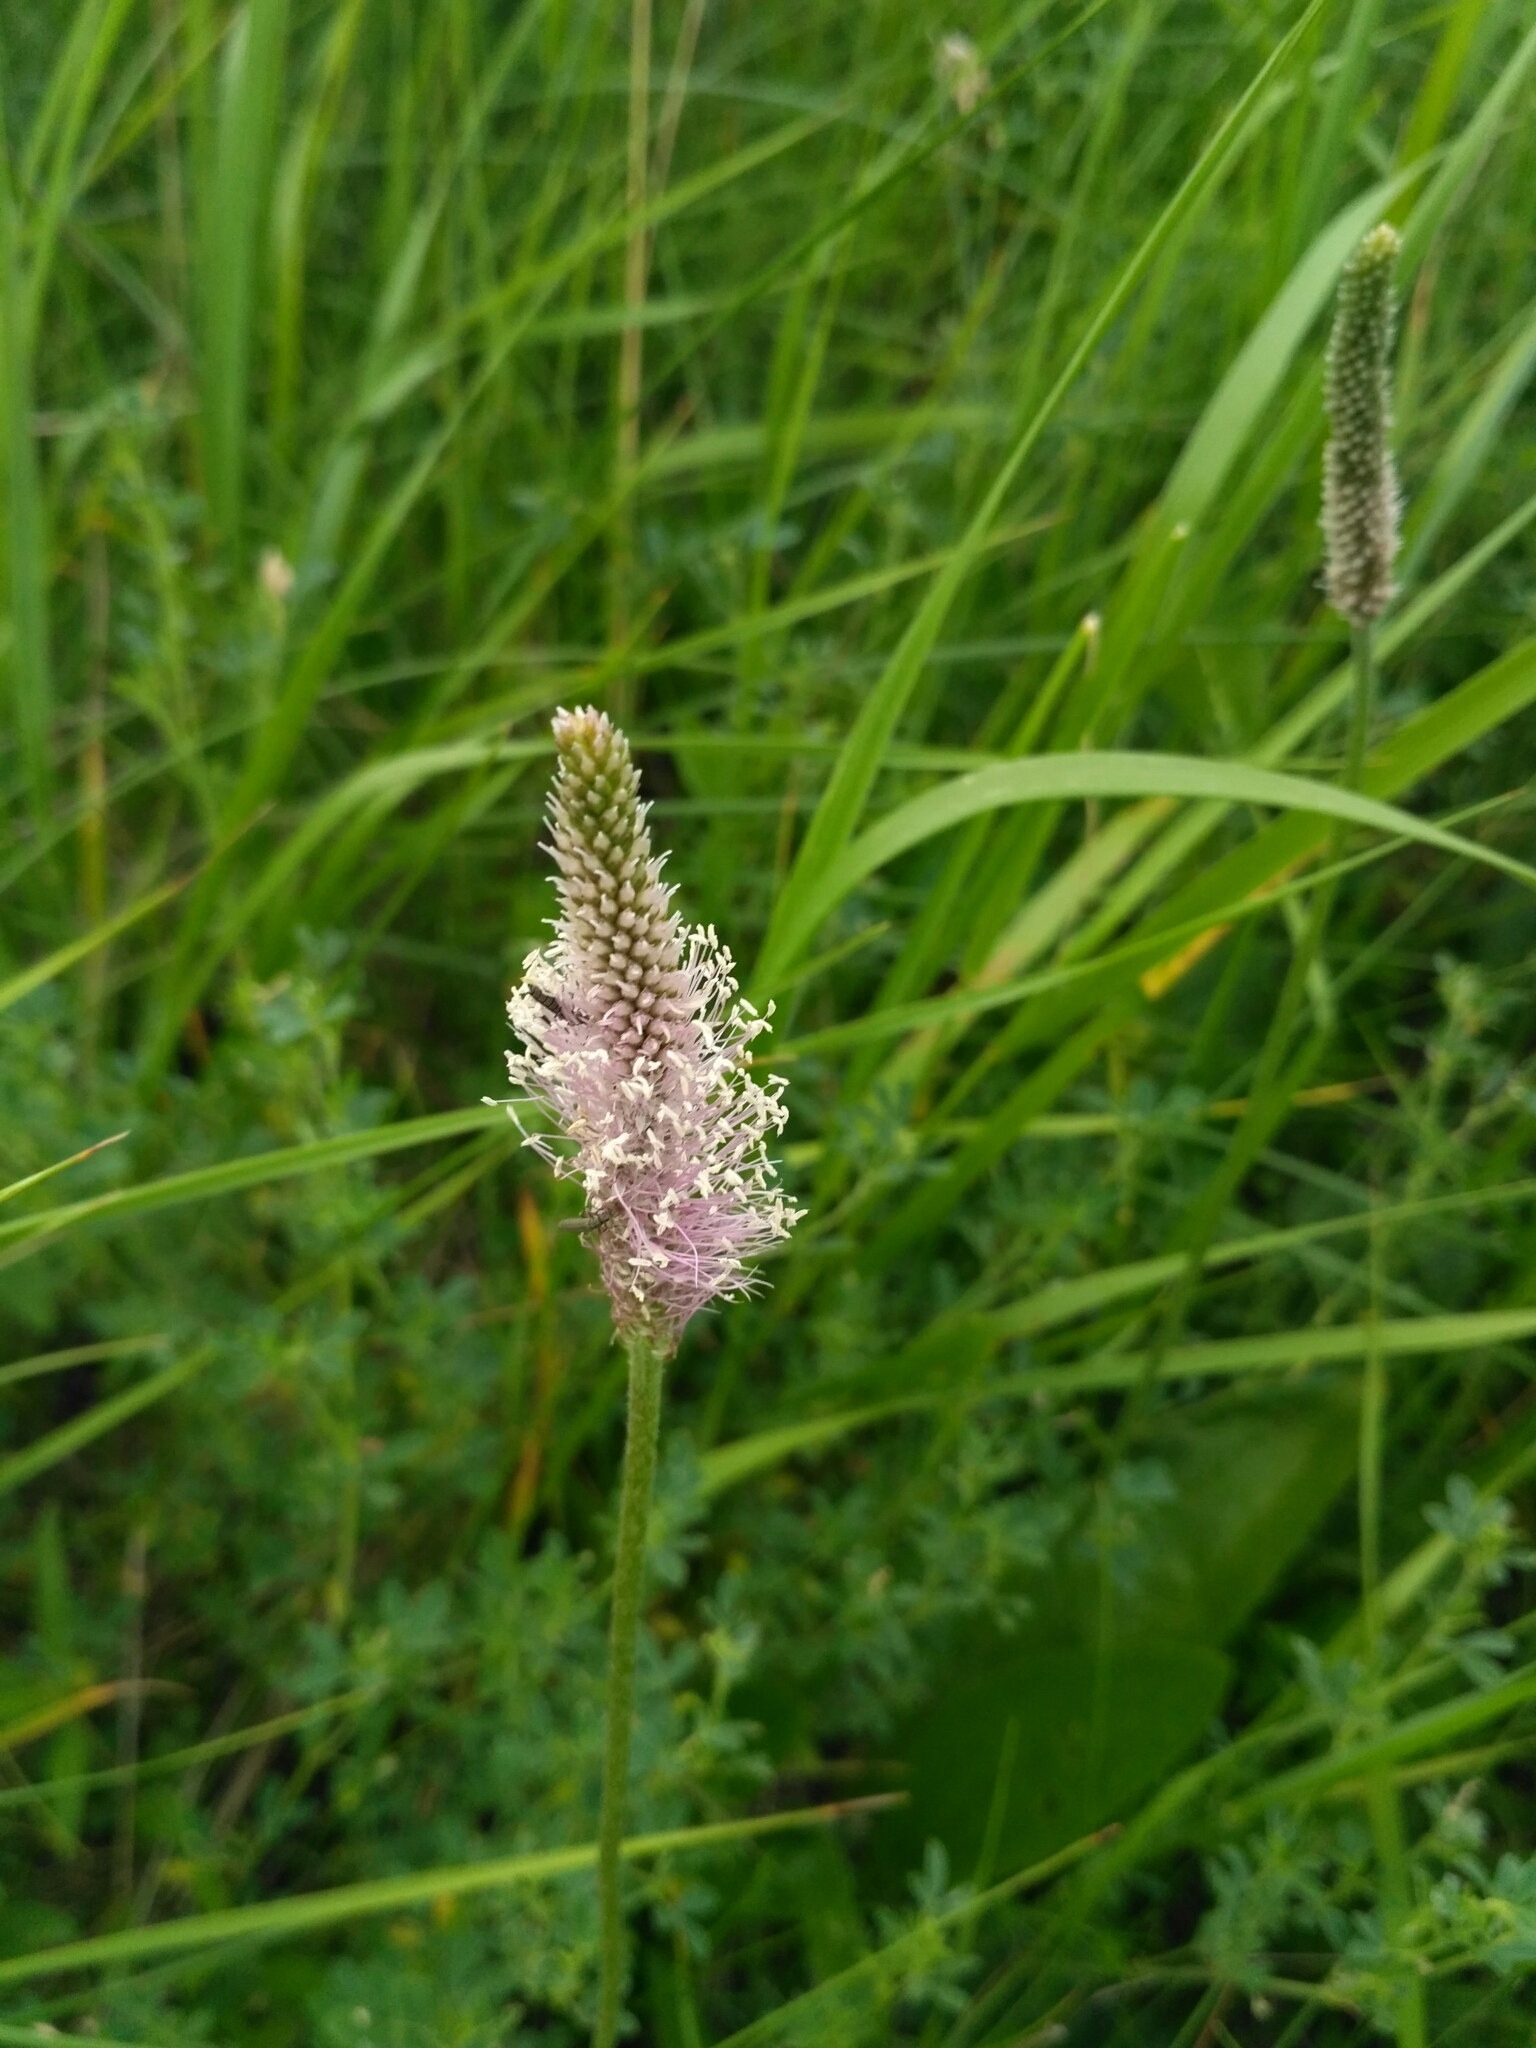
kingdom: Plantae
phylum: Tracheophyta
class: Magnoliopsida
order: Lamiales
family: Plantaginaceae
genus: Plantago
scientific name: Plantago urvillei
